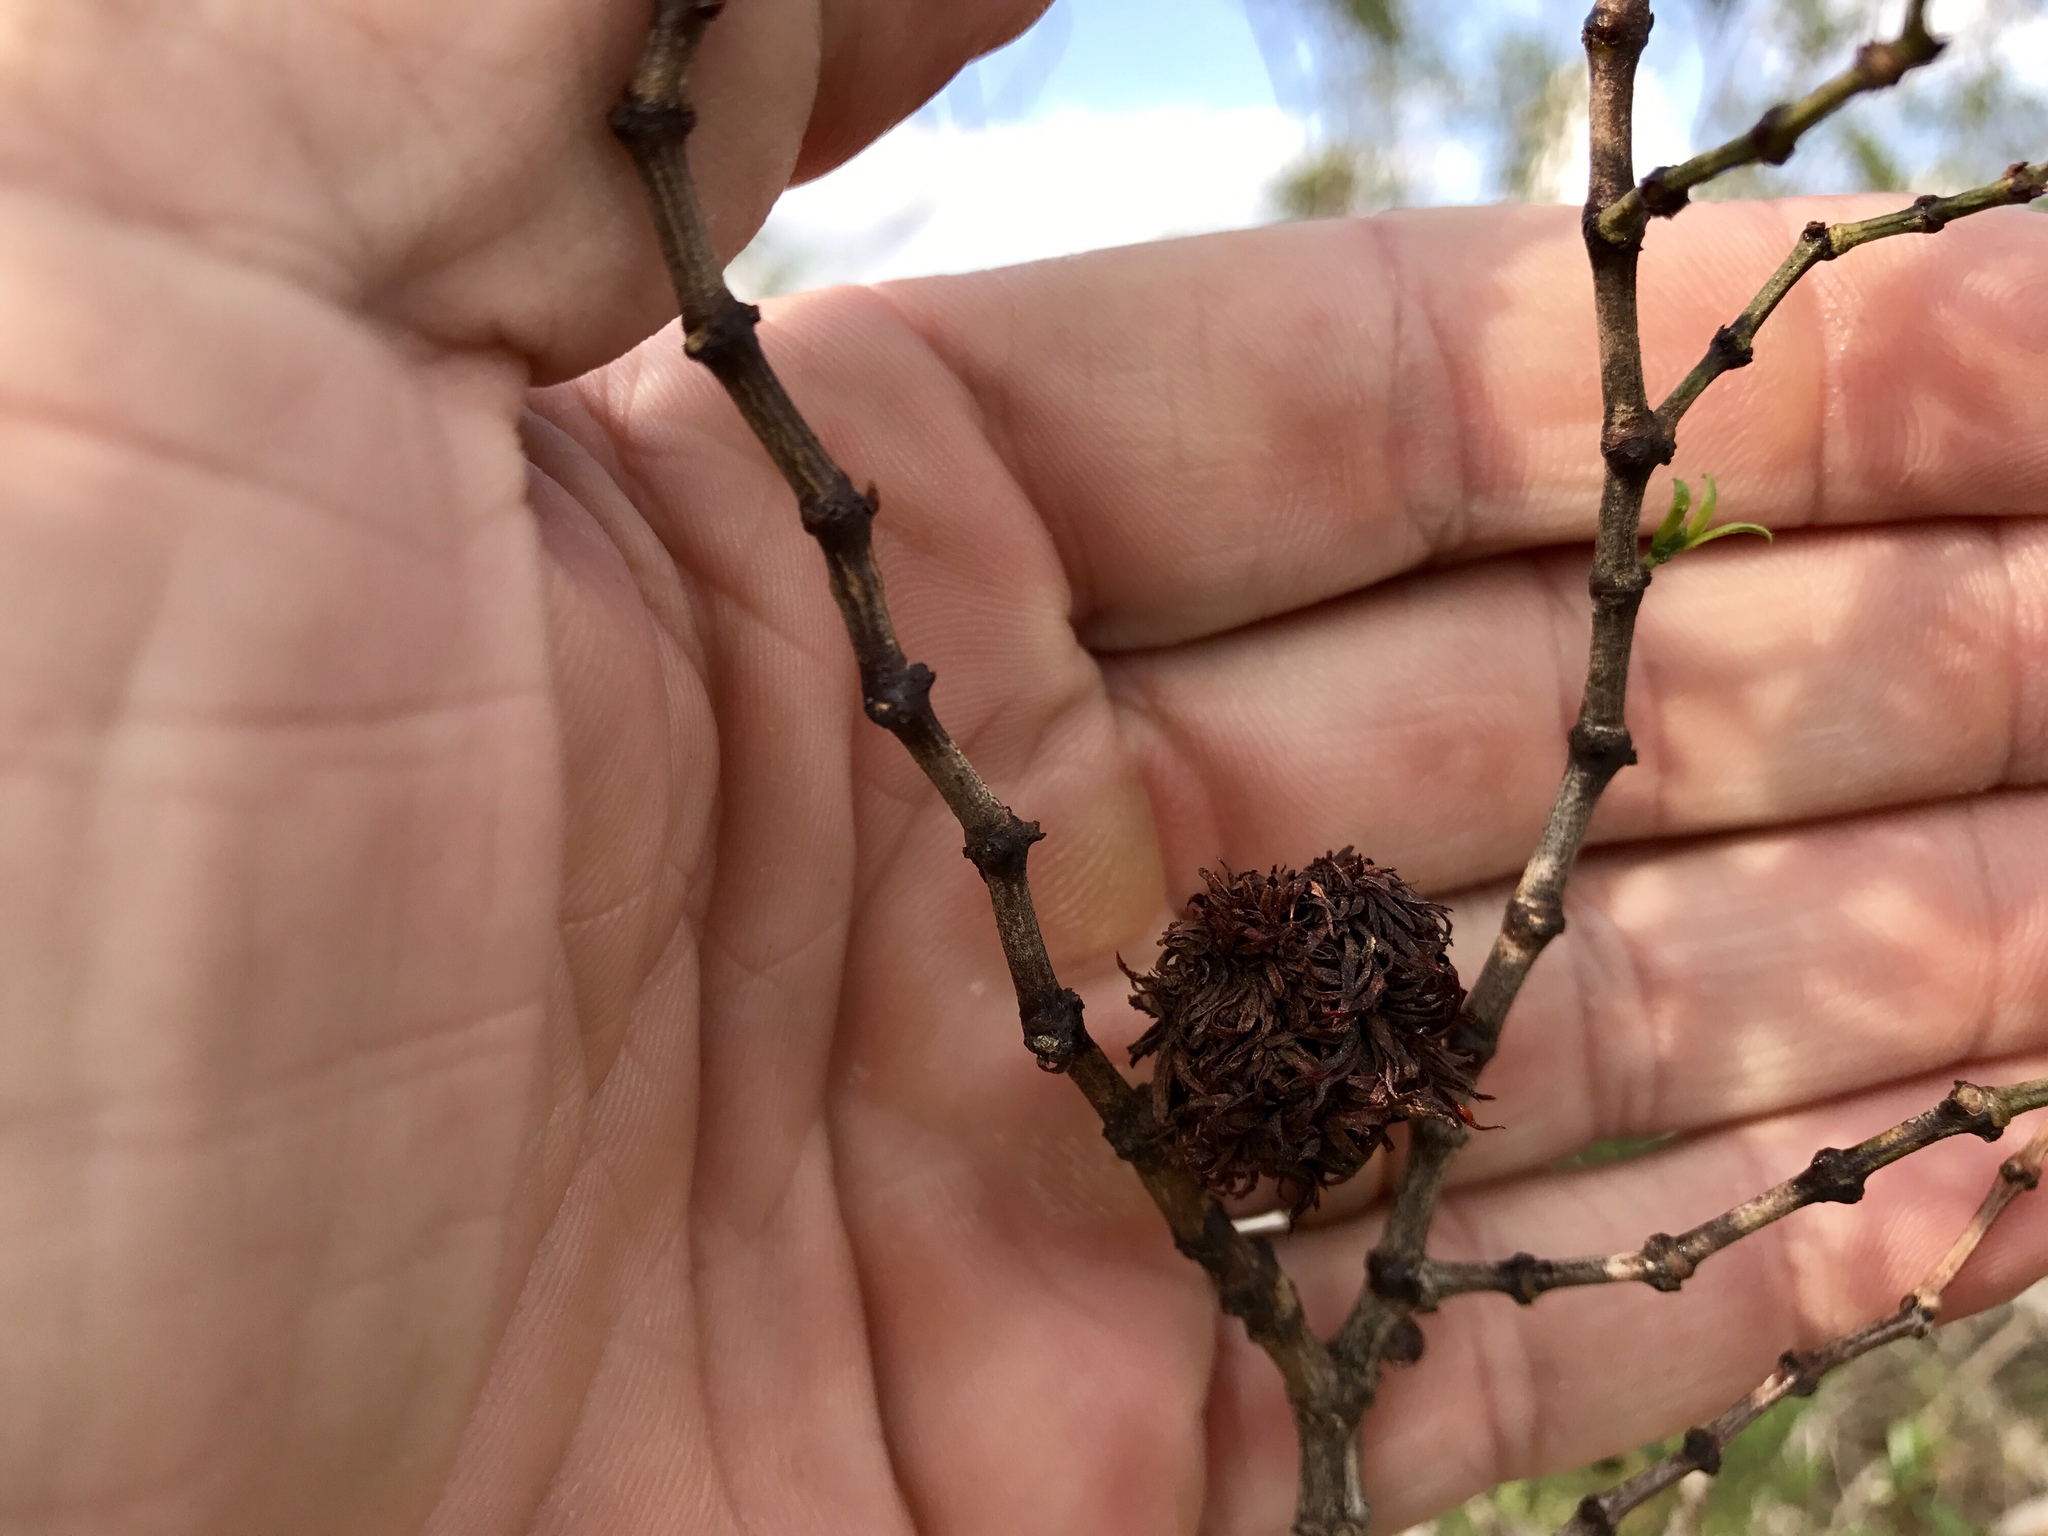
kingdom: Animalia
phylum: Arthropoda
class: Insecta
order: Diptera
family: Cecidomyiidae
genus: Asphondylia
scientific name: Asphondylia auripila
